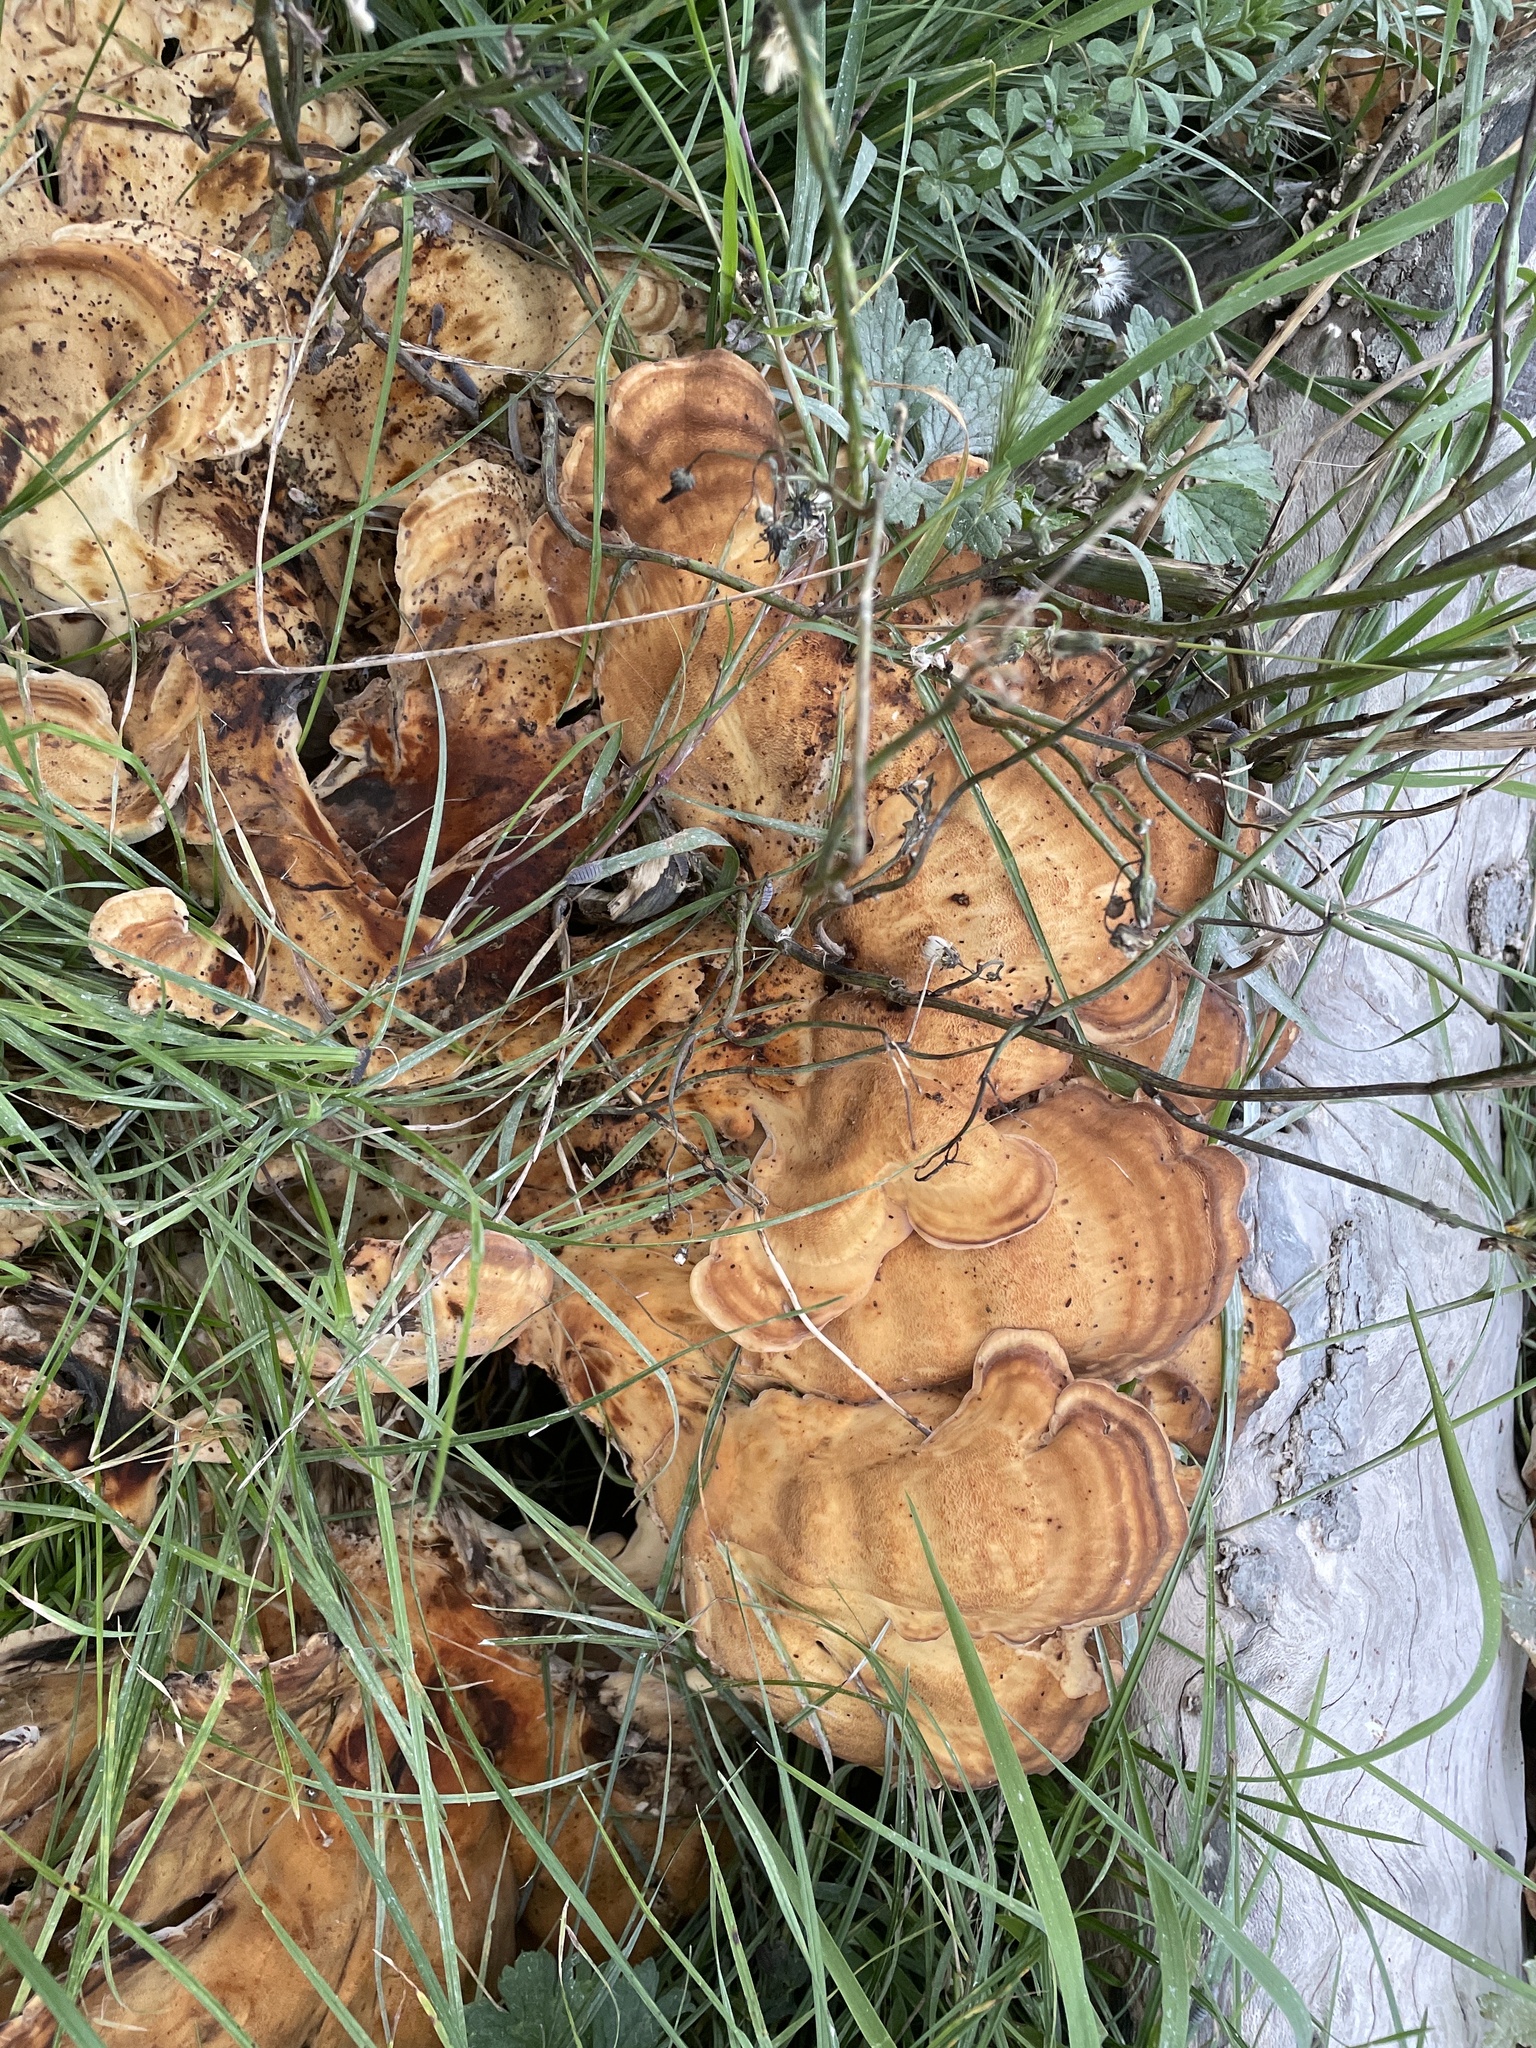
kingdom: Fungi
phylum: Basidiomycota
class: Agaricomycetes
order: Polyporales
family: Meripilaceae
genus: Meripilus
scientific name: Meripilus giganteus
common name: Giant polypore
